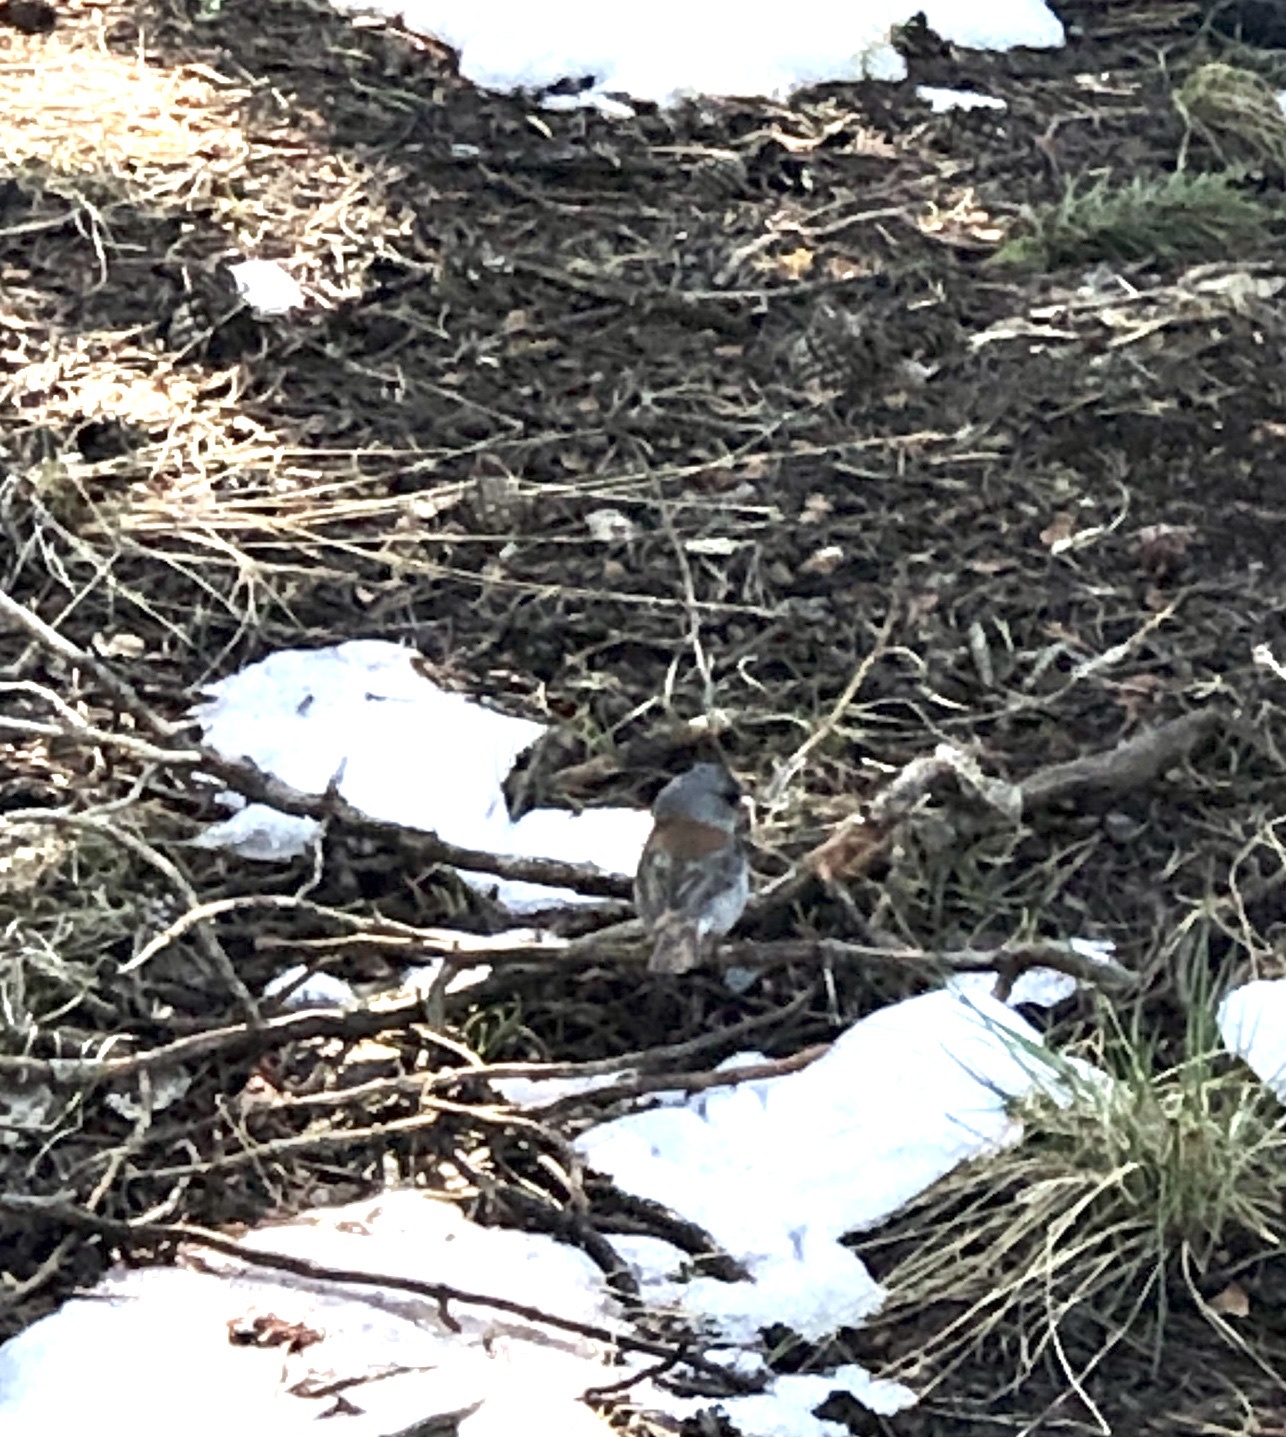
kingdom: Animalia
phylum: Chordata
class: Aves
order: Passeriformes
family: Passerellidae
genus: Junco
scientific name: Junco hyemalis
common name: Dark-eyed junco
